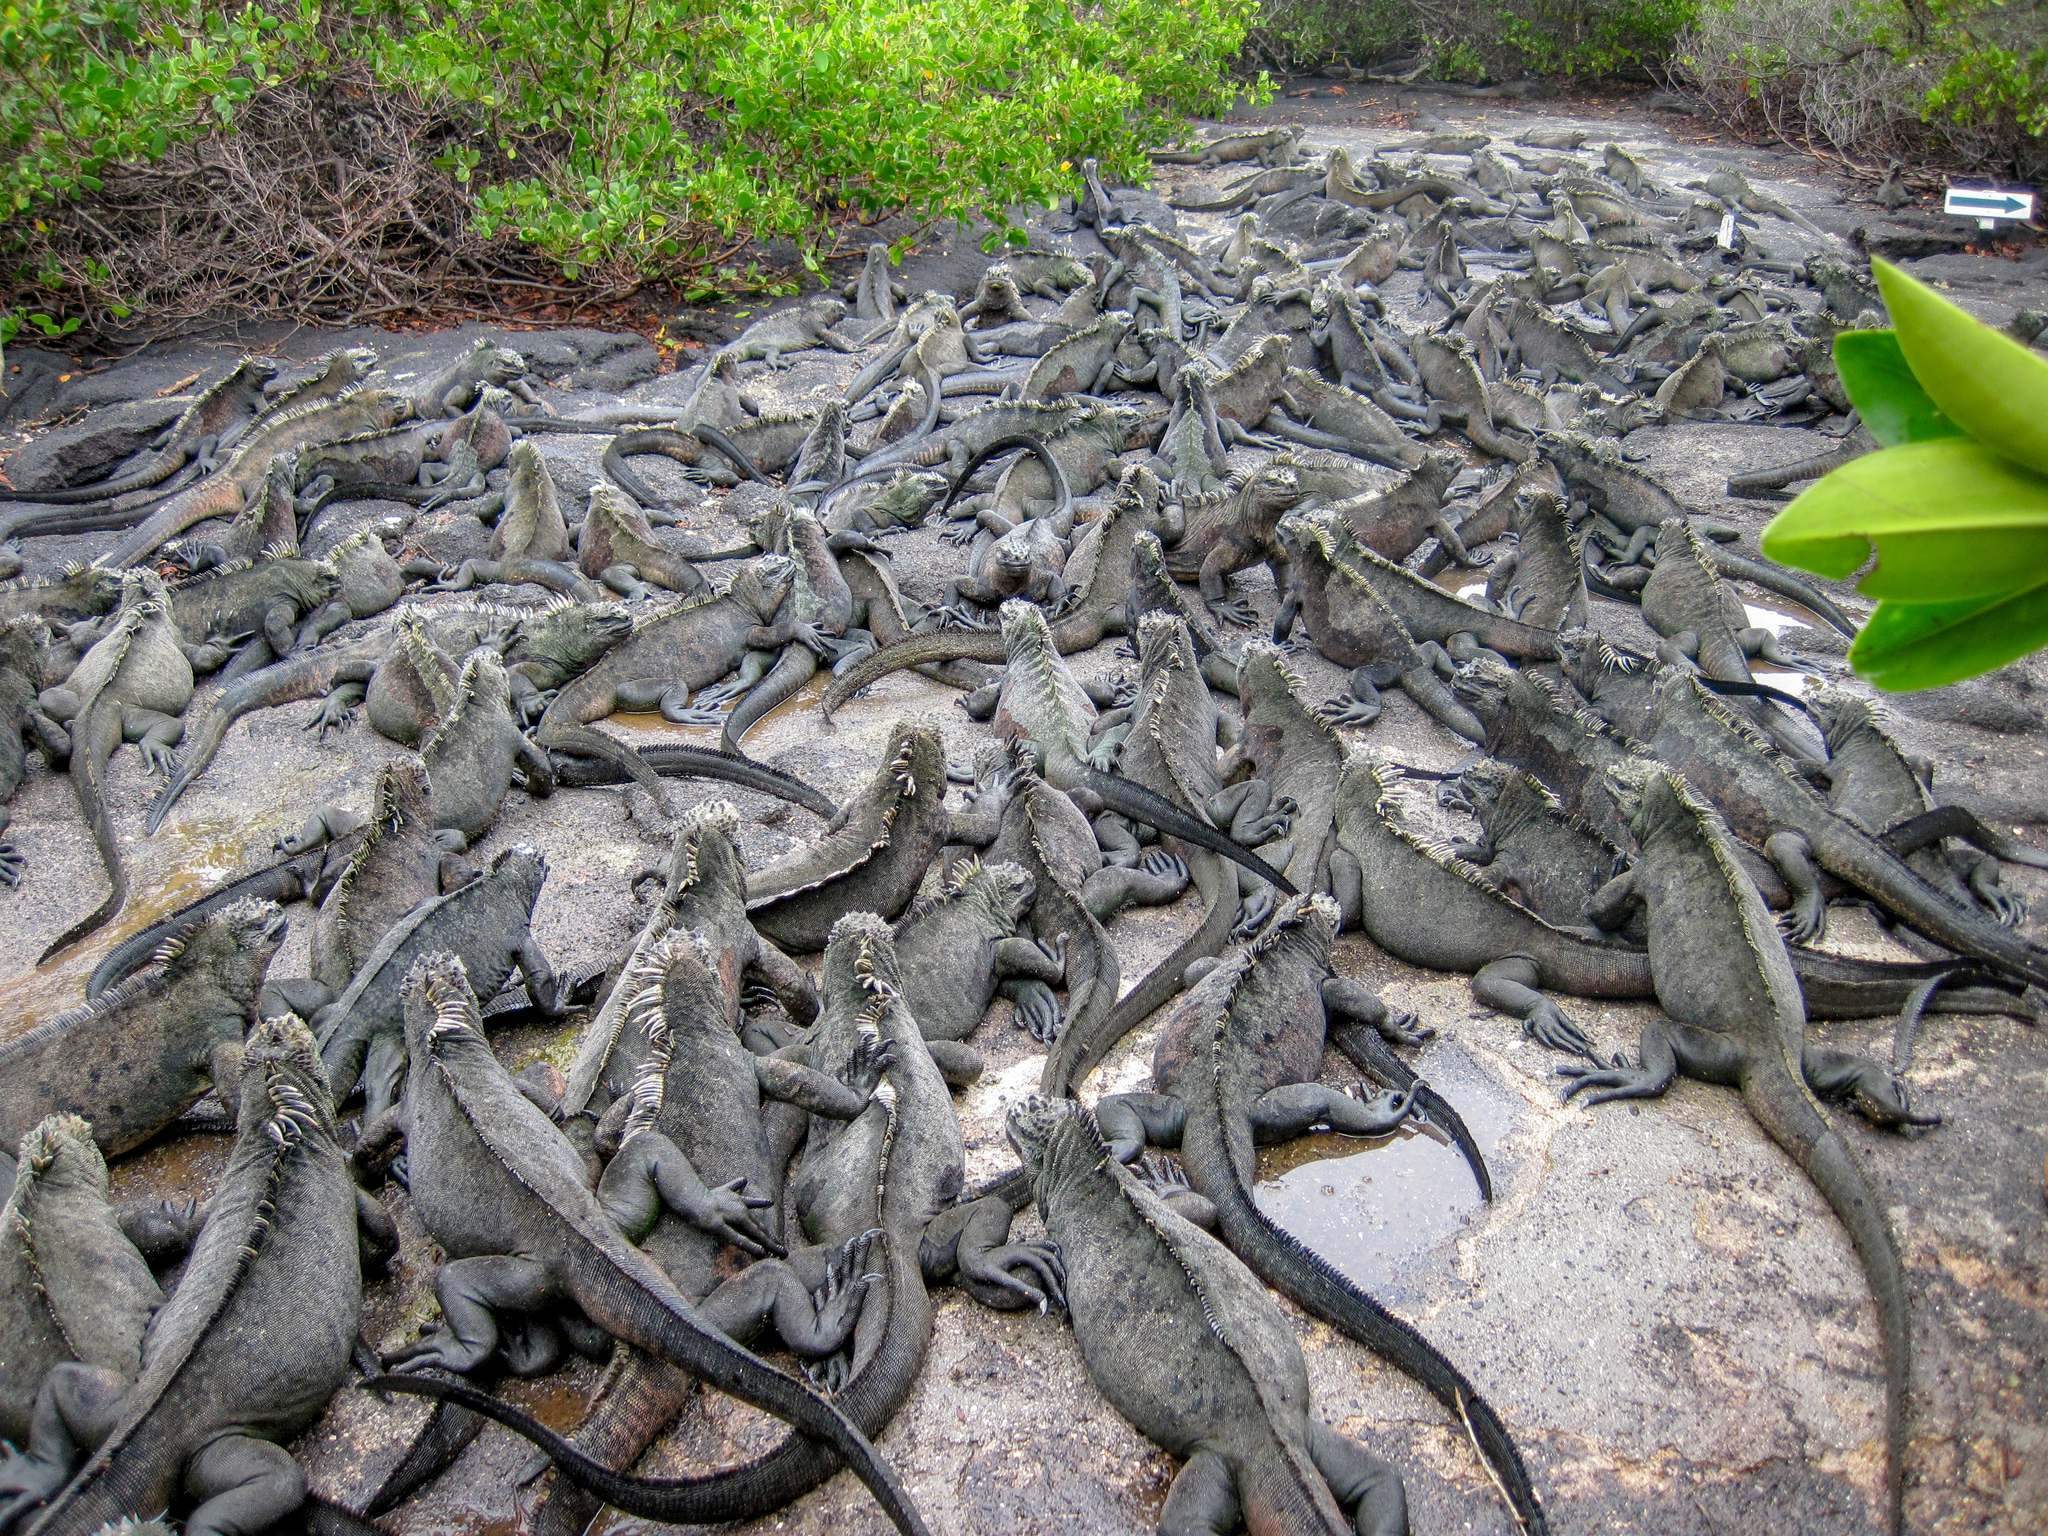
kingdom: Animalia
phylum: Chordata
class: Squamata
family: Iguanidae
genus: Amblyrhynchus
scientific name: Amblyrhynchus cristatus
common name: Marine iguana
